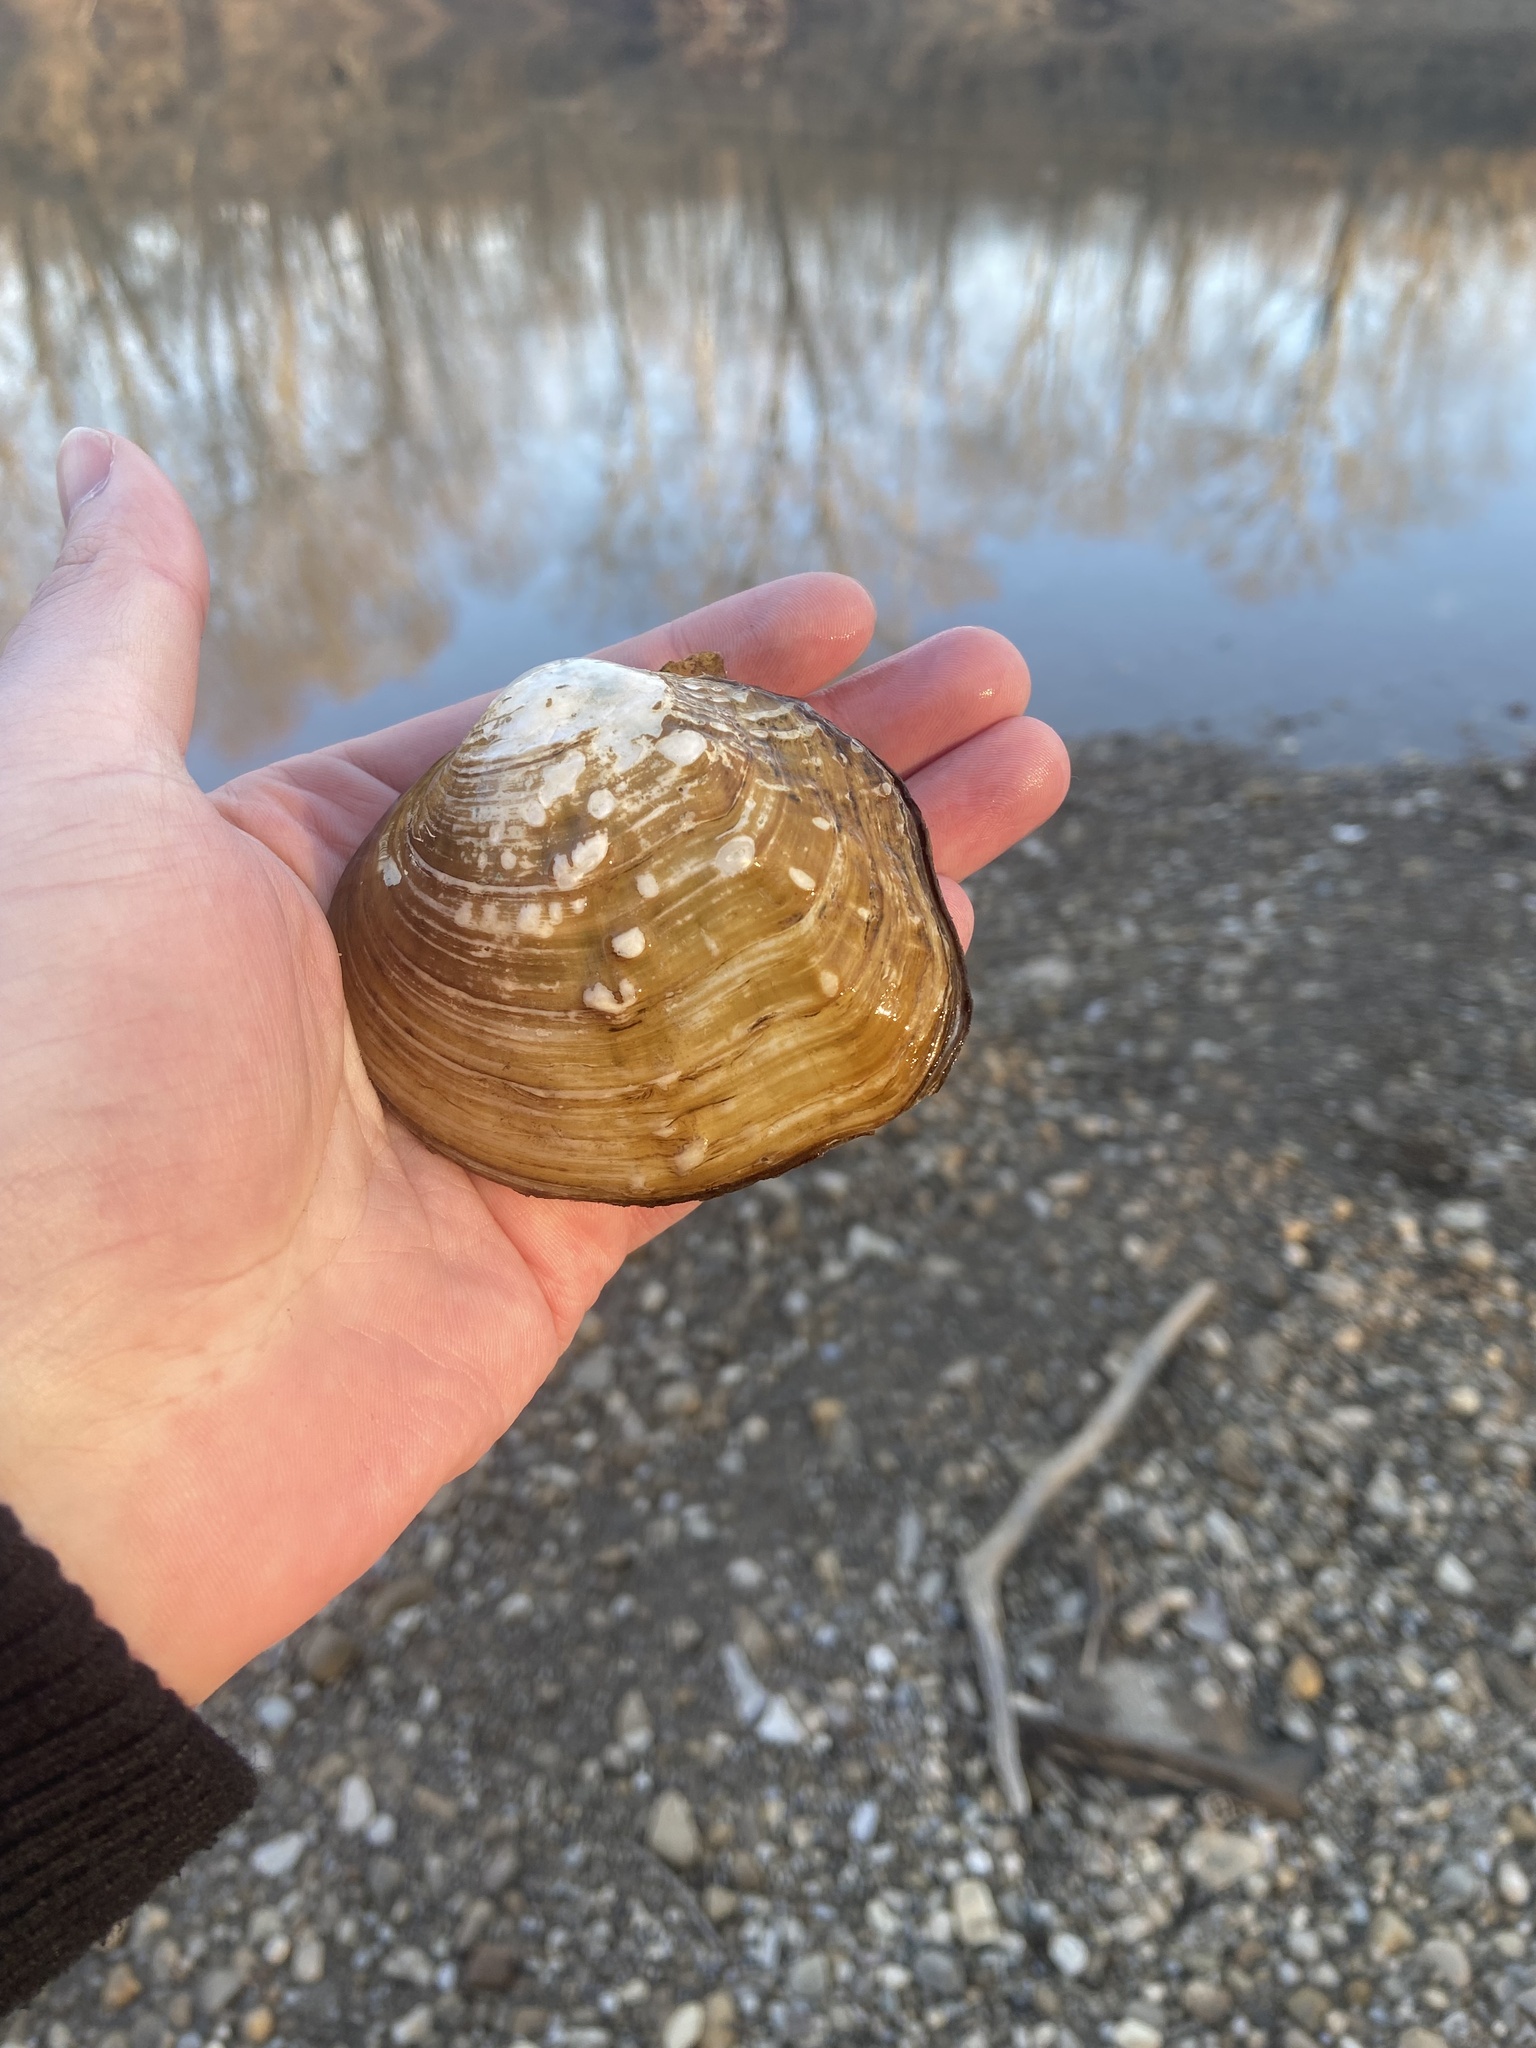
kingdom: Animalia
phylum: Mollusca
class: Bivalvia
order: Unionida
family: Unionidae
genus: Quadrula
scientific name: Quadrula quadrula
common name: Mapleleaf
